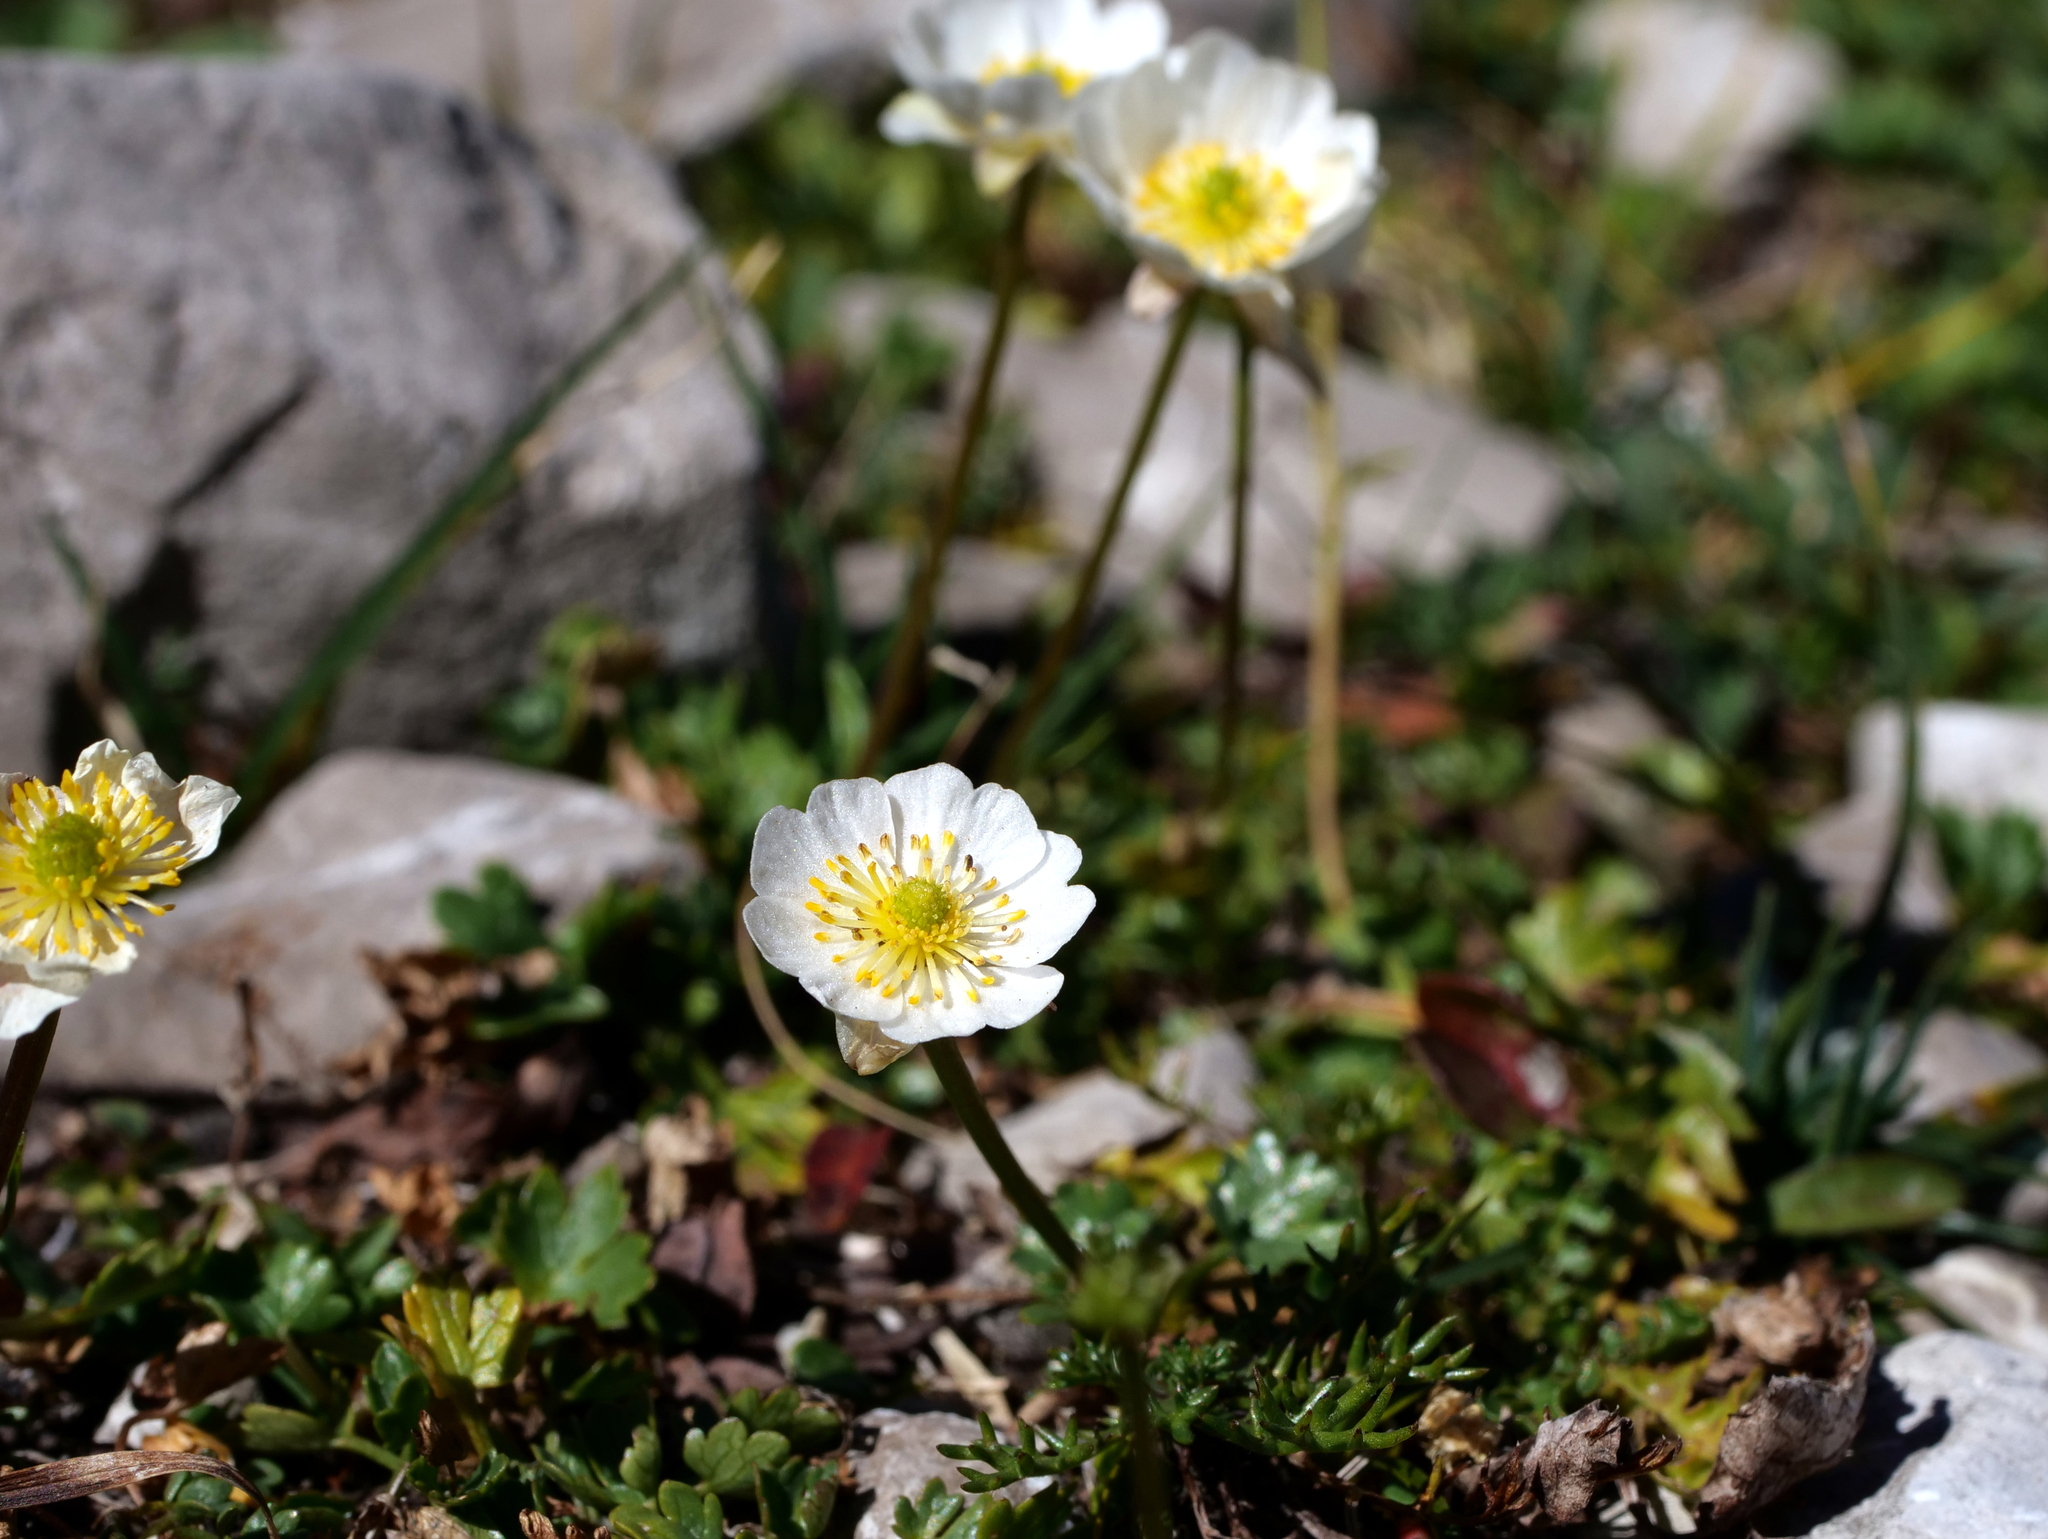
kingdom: Plantae
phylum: Tracheophyta
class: Magnoliopsida
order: Ranunculales
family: Ranunculaceae
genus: Ranunculus
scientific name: Ranunculus alpestris
